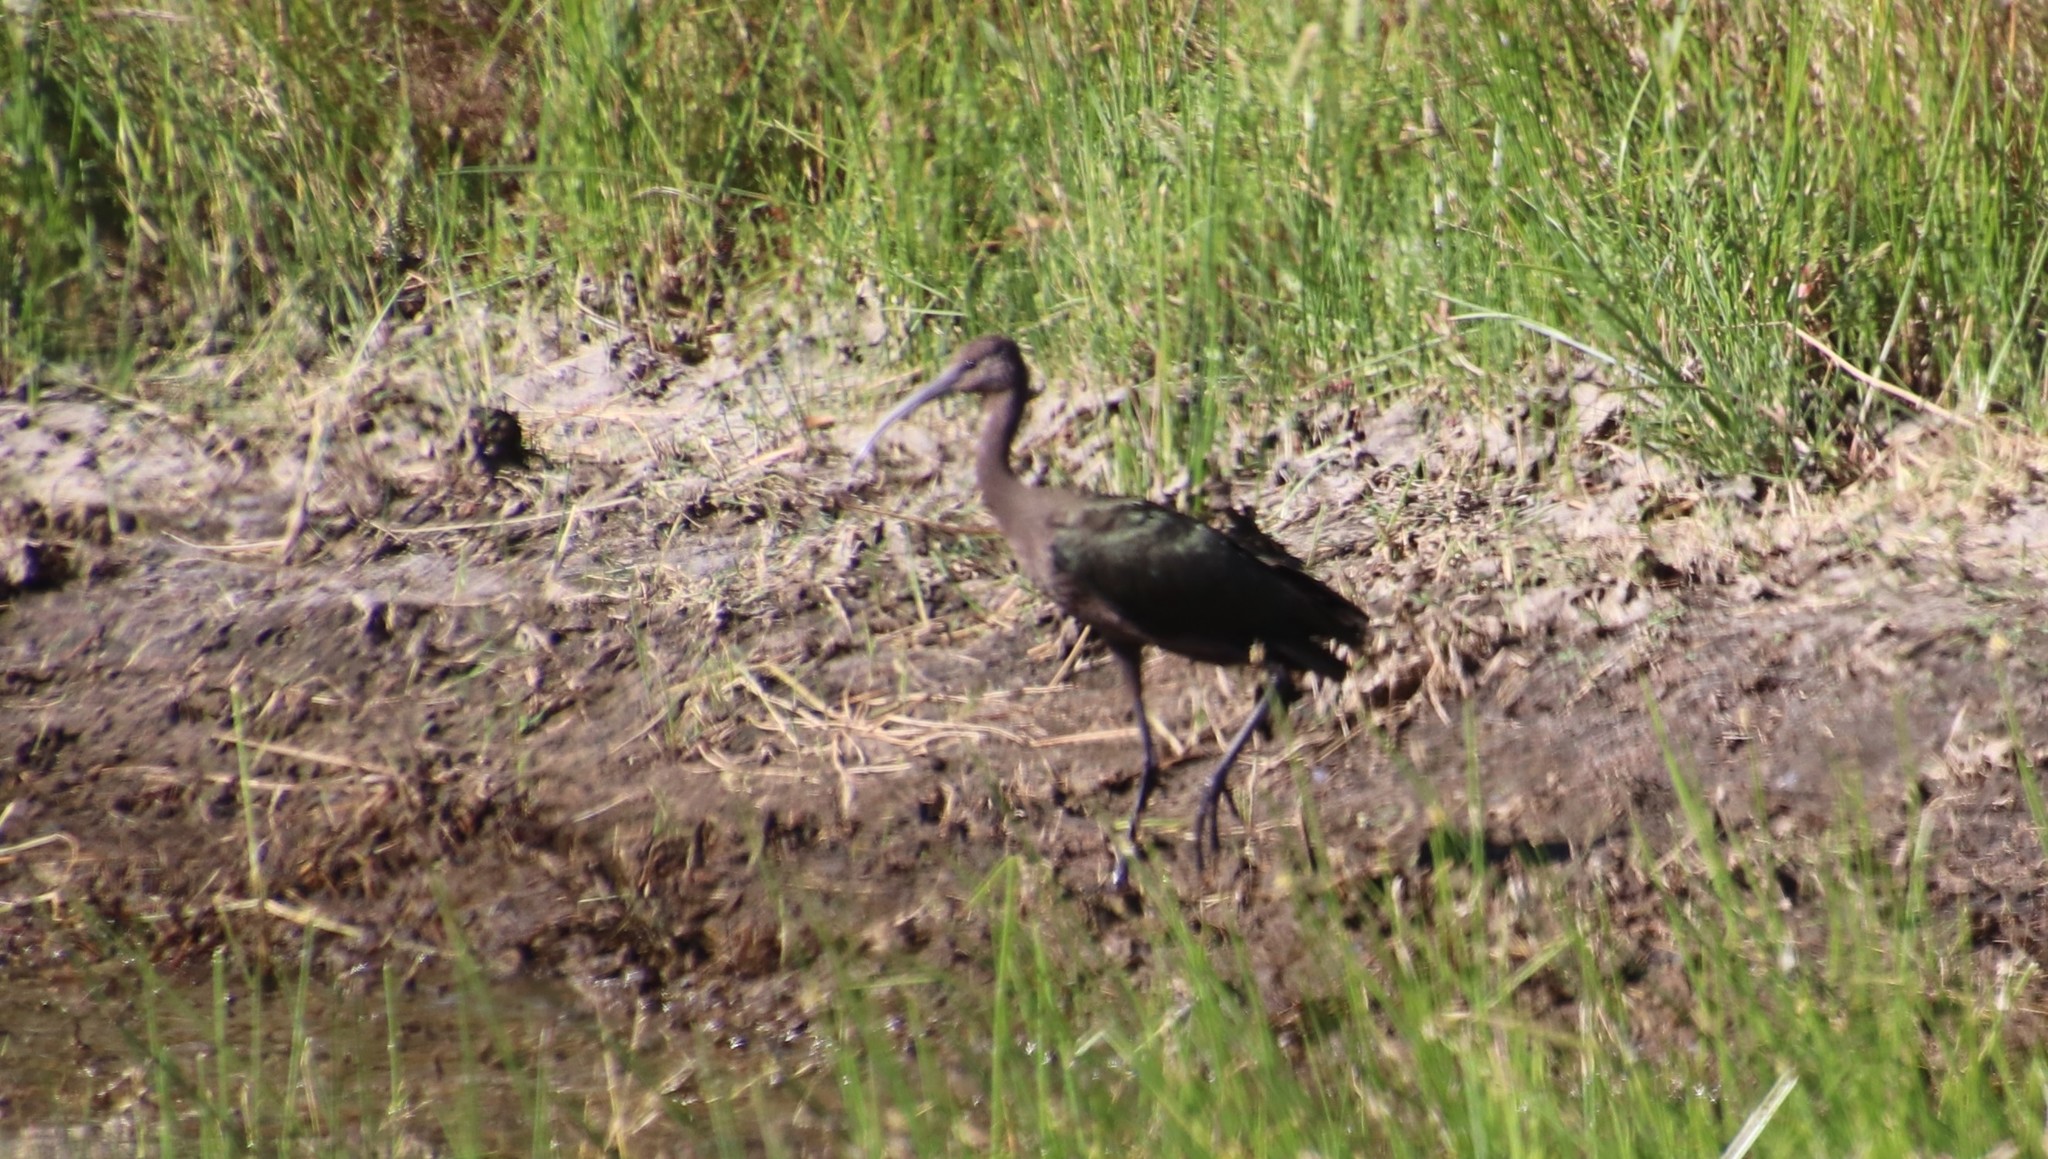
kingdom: Animalia
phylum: Chordata
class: Aves
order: Pelecaniformes
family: Threskiornithidae
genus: Plegadis
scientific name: Plegadis chihi
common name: White-faced ibis
